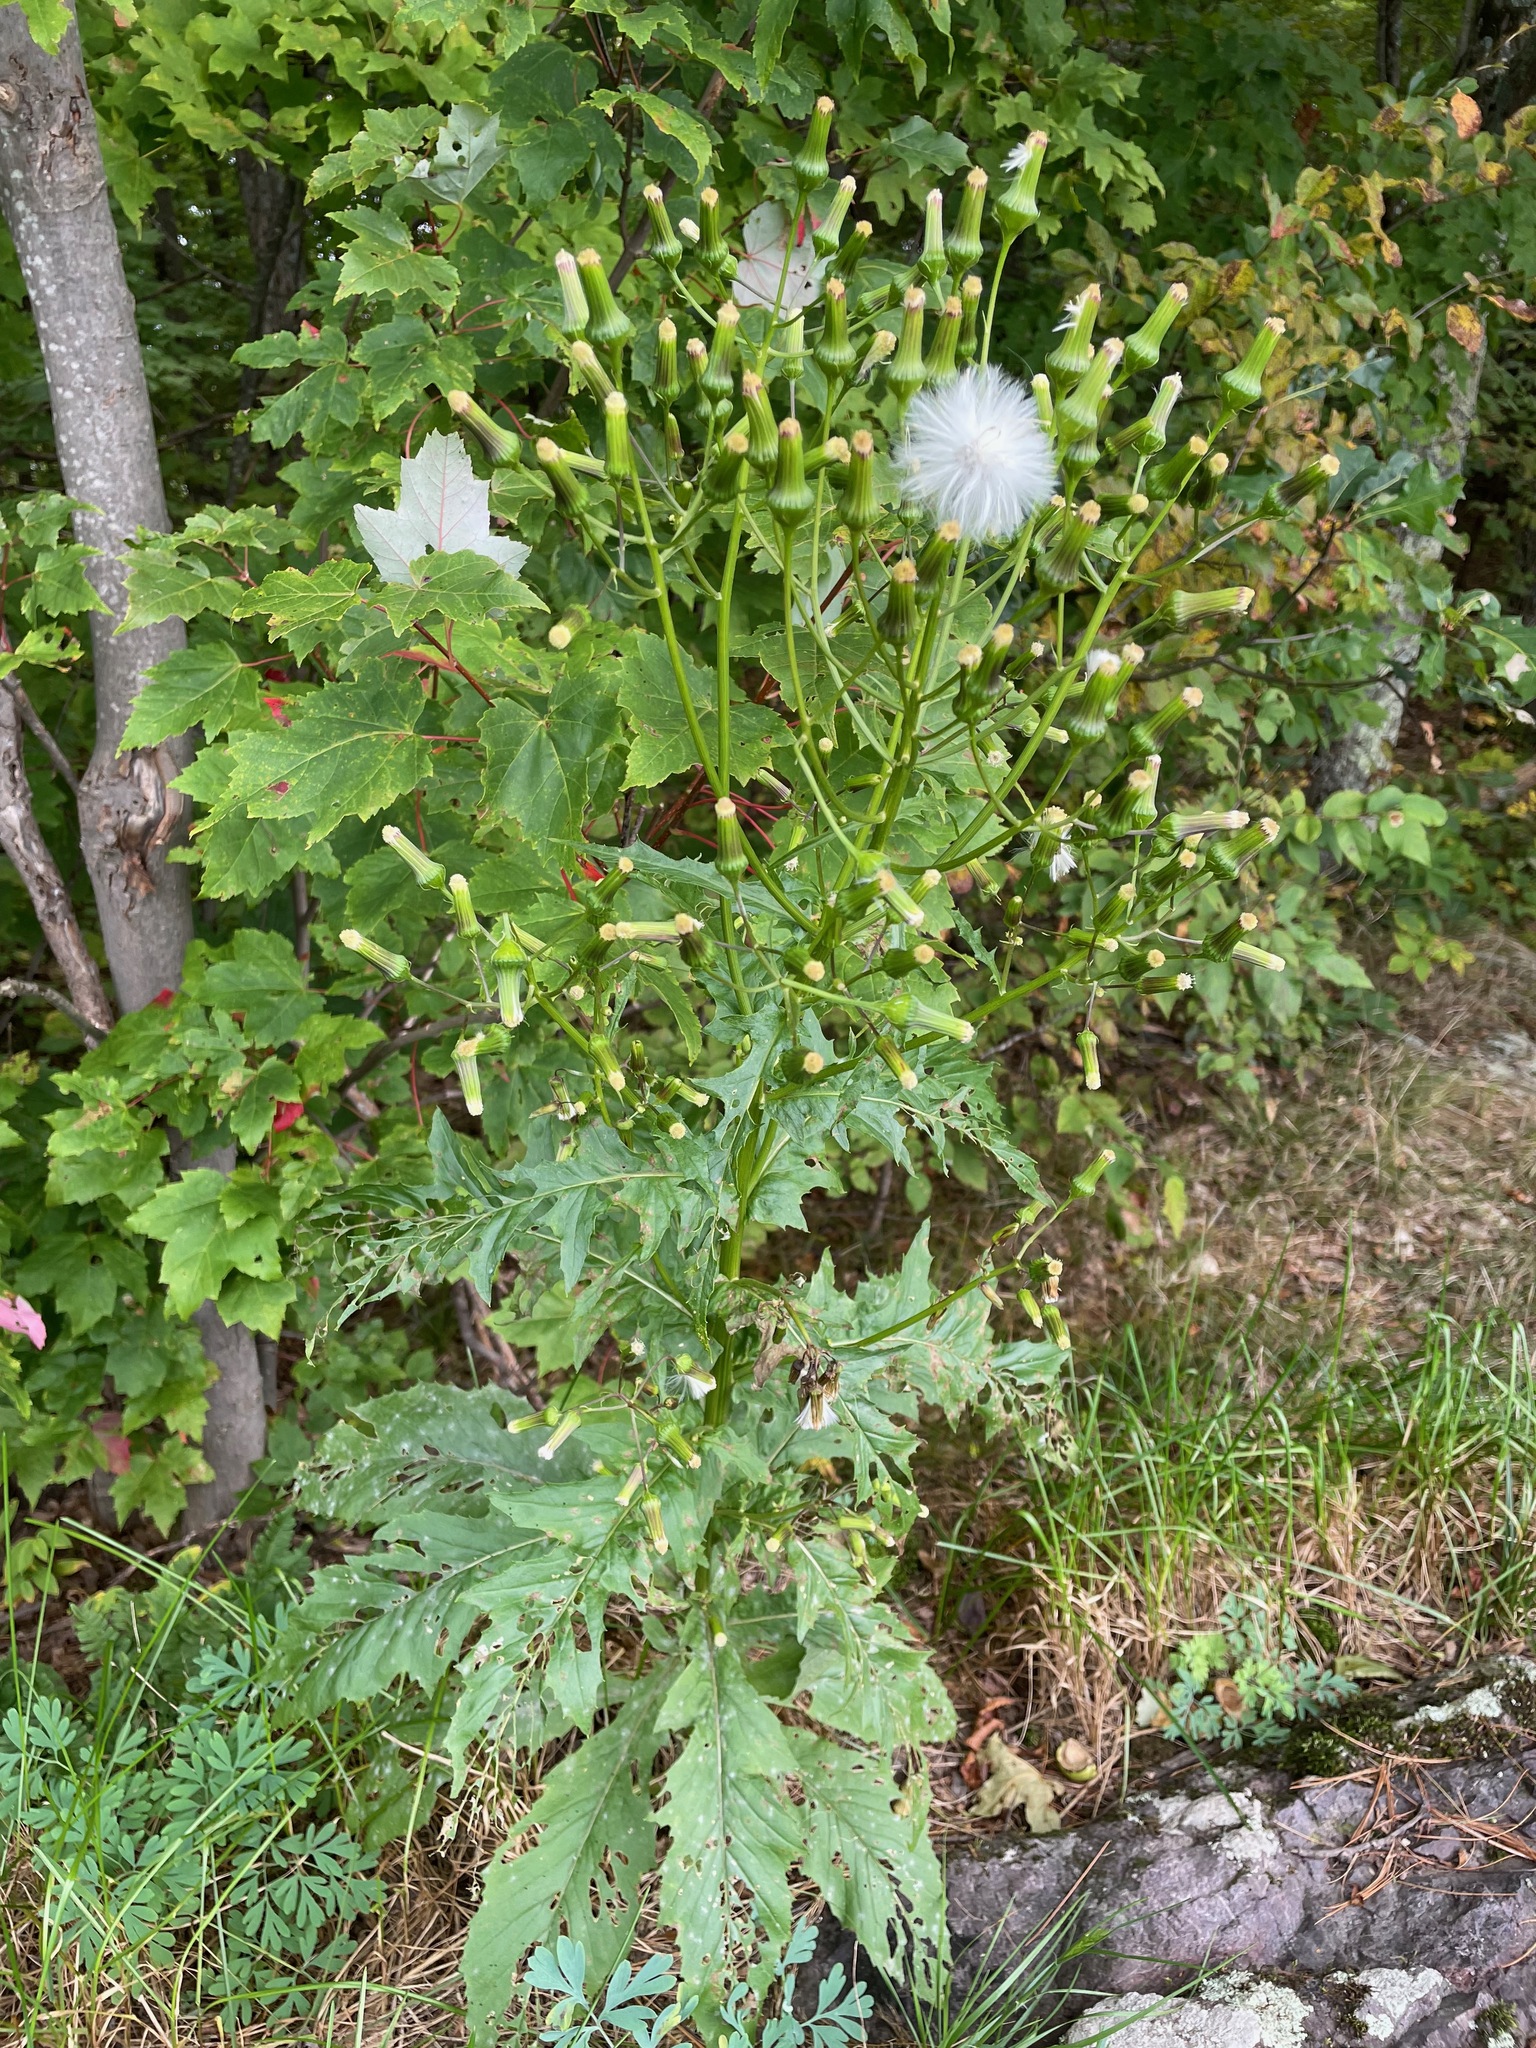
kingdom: Plantae
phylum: Tracheophyta
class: Magnoliopsida
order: Asterales
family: Asteraceae
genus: Erechtites
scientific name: Erechtites hieraciifolius
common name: American burnweed
